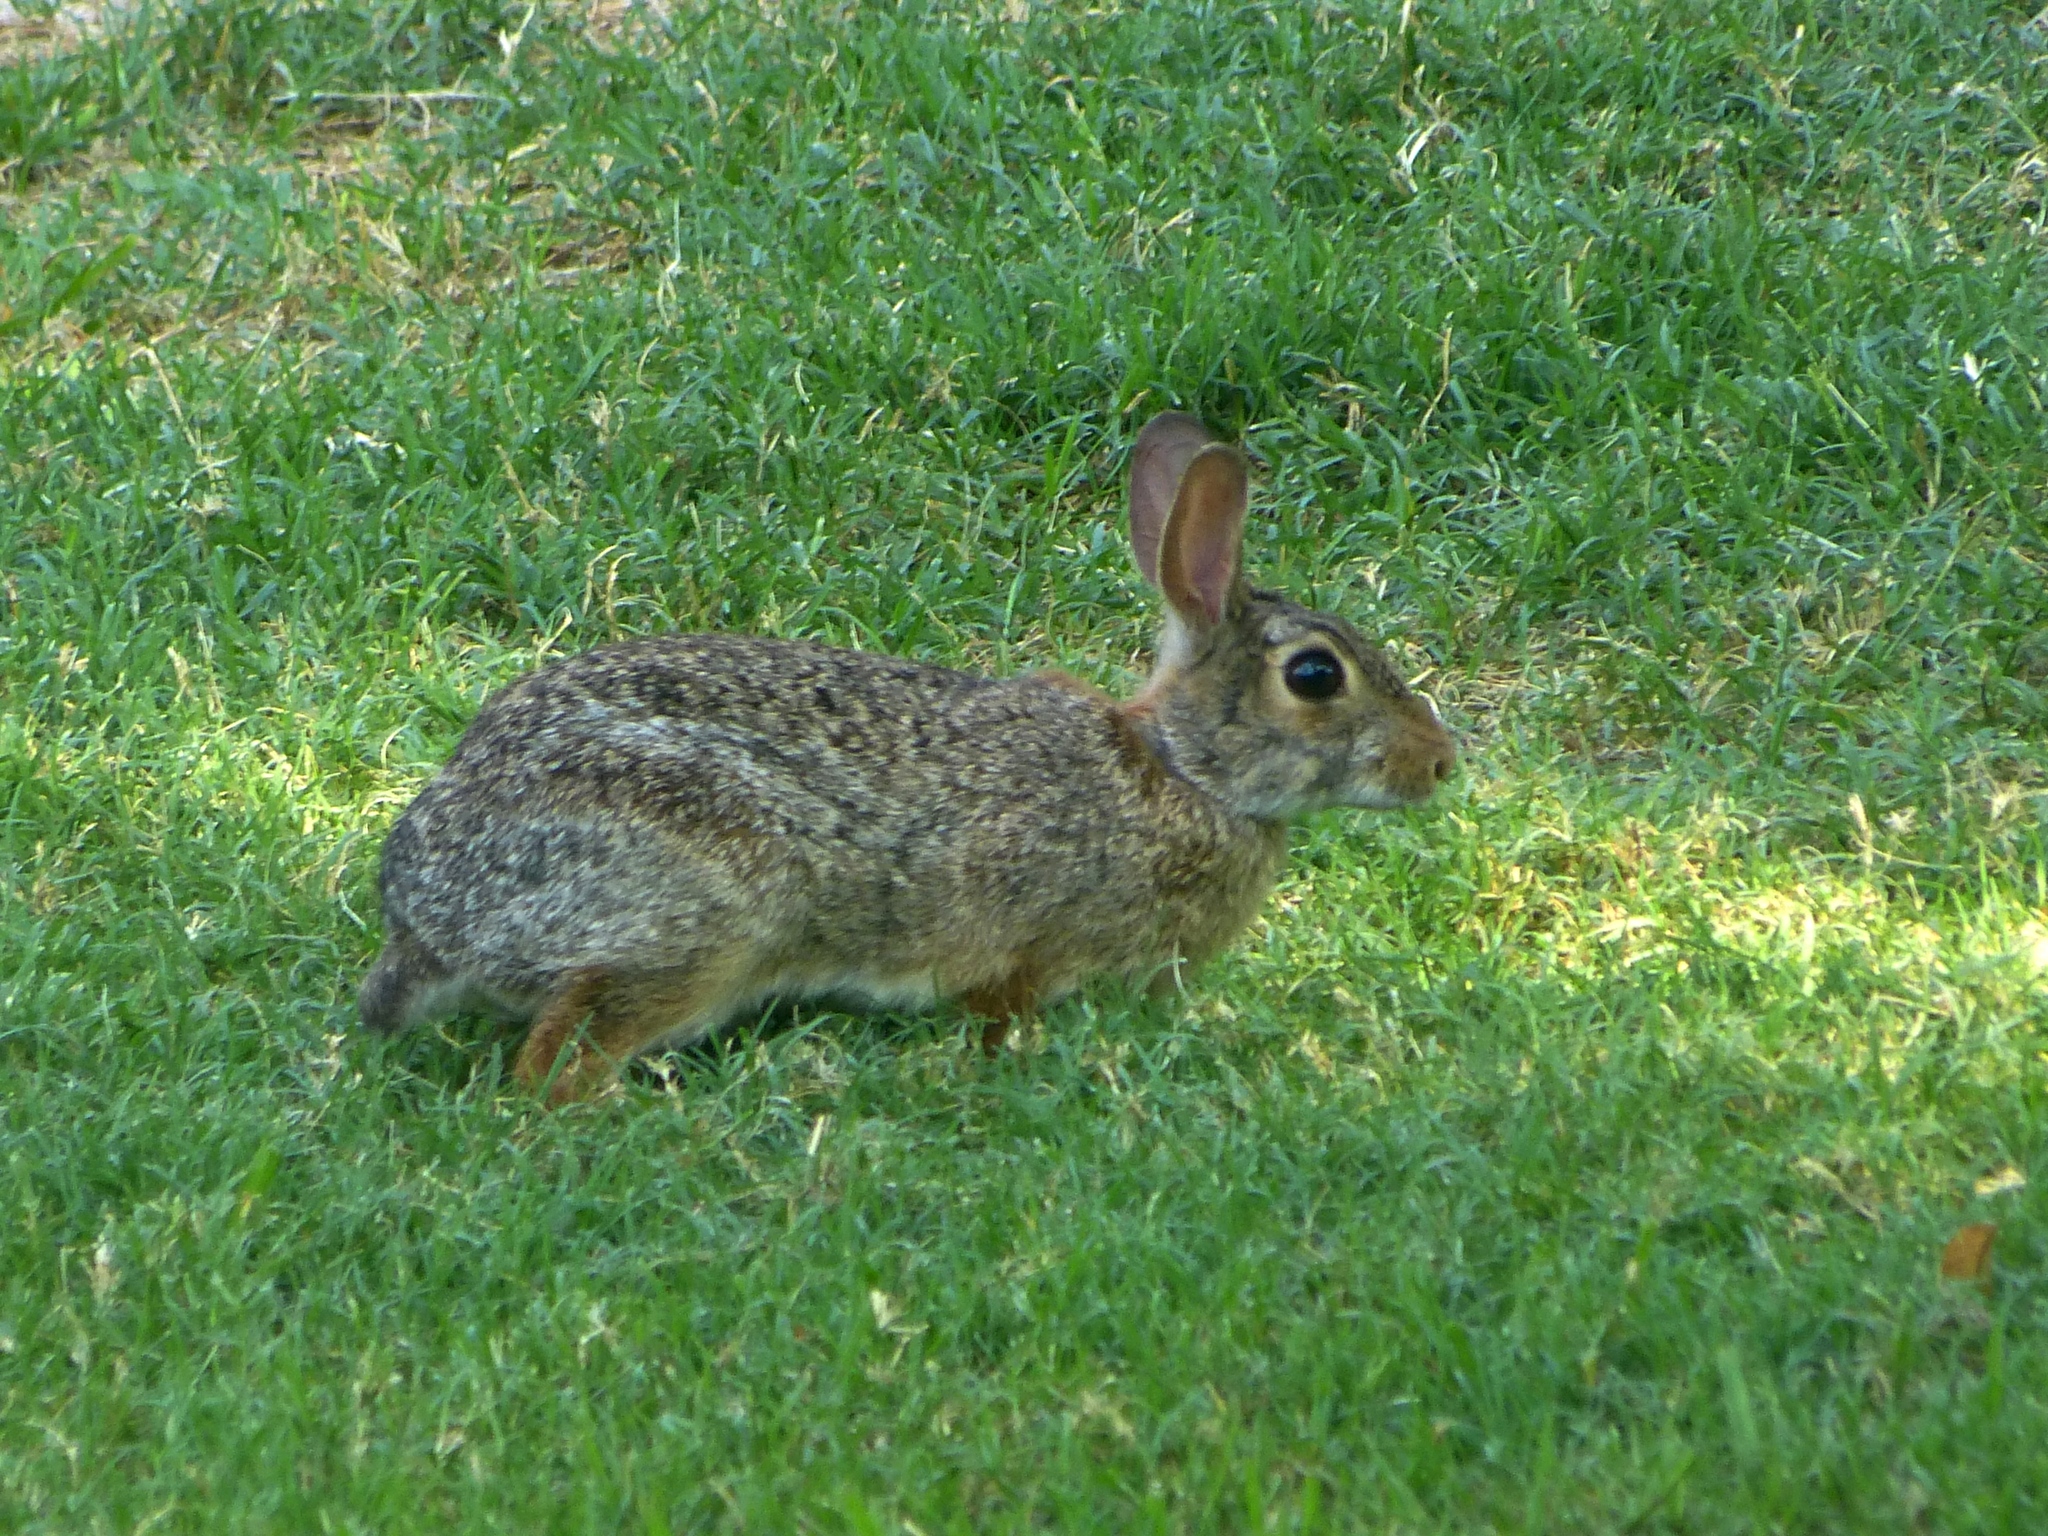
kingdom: Animalia
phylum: Chordata
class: Mammalia
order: Lagomorpha
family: Leporidae
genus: Sylvilagus
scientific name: Sylvilagus floridanus
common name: Eastern cottontail
